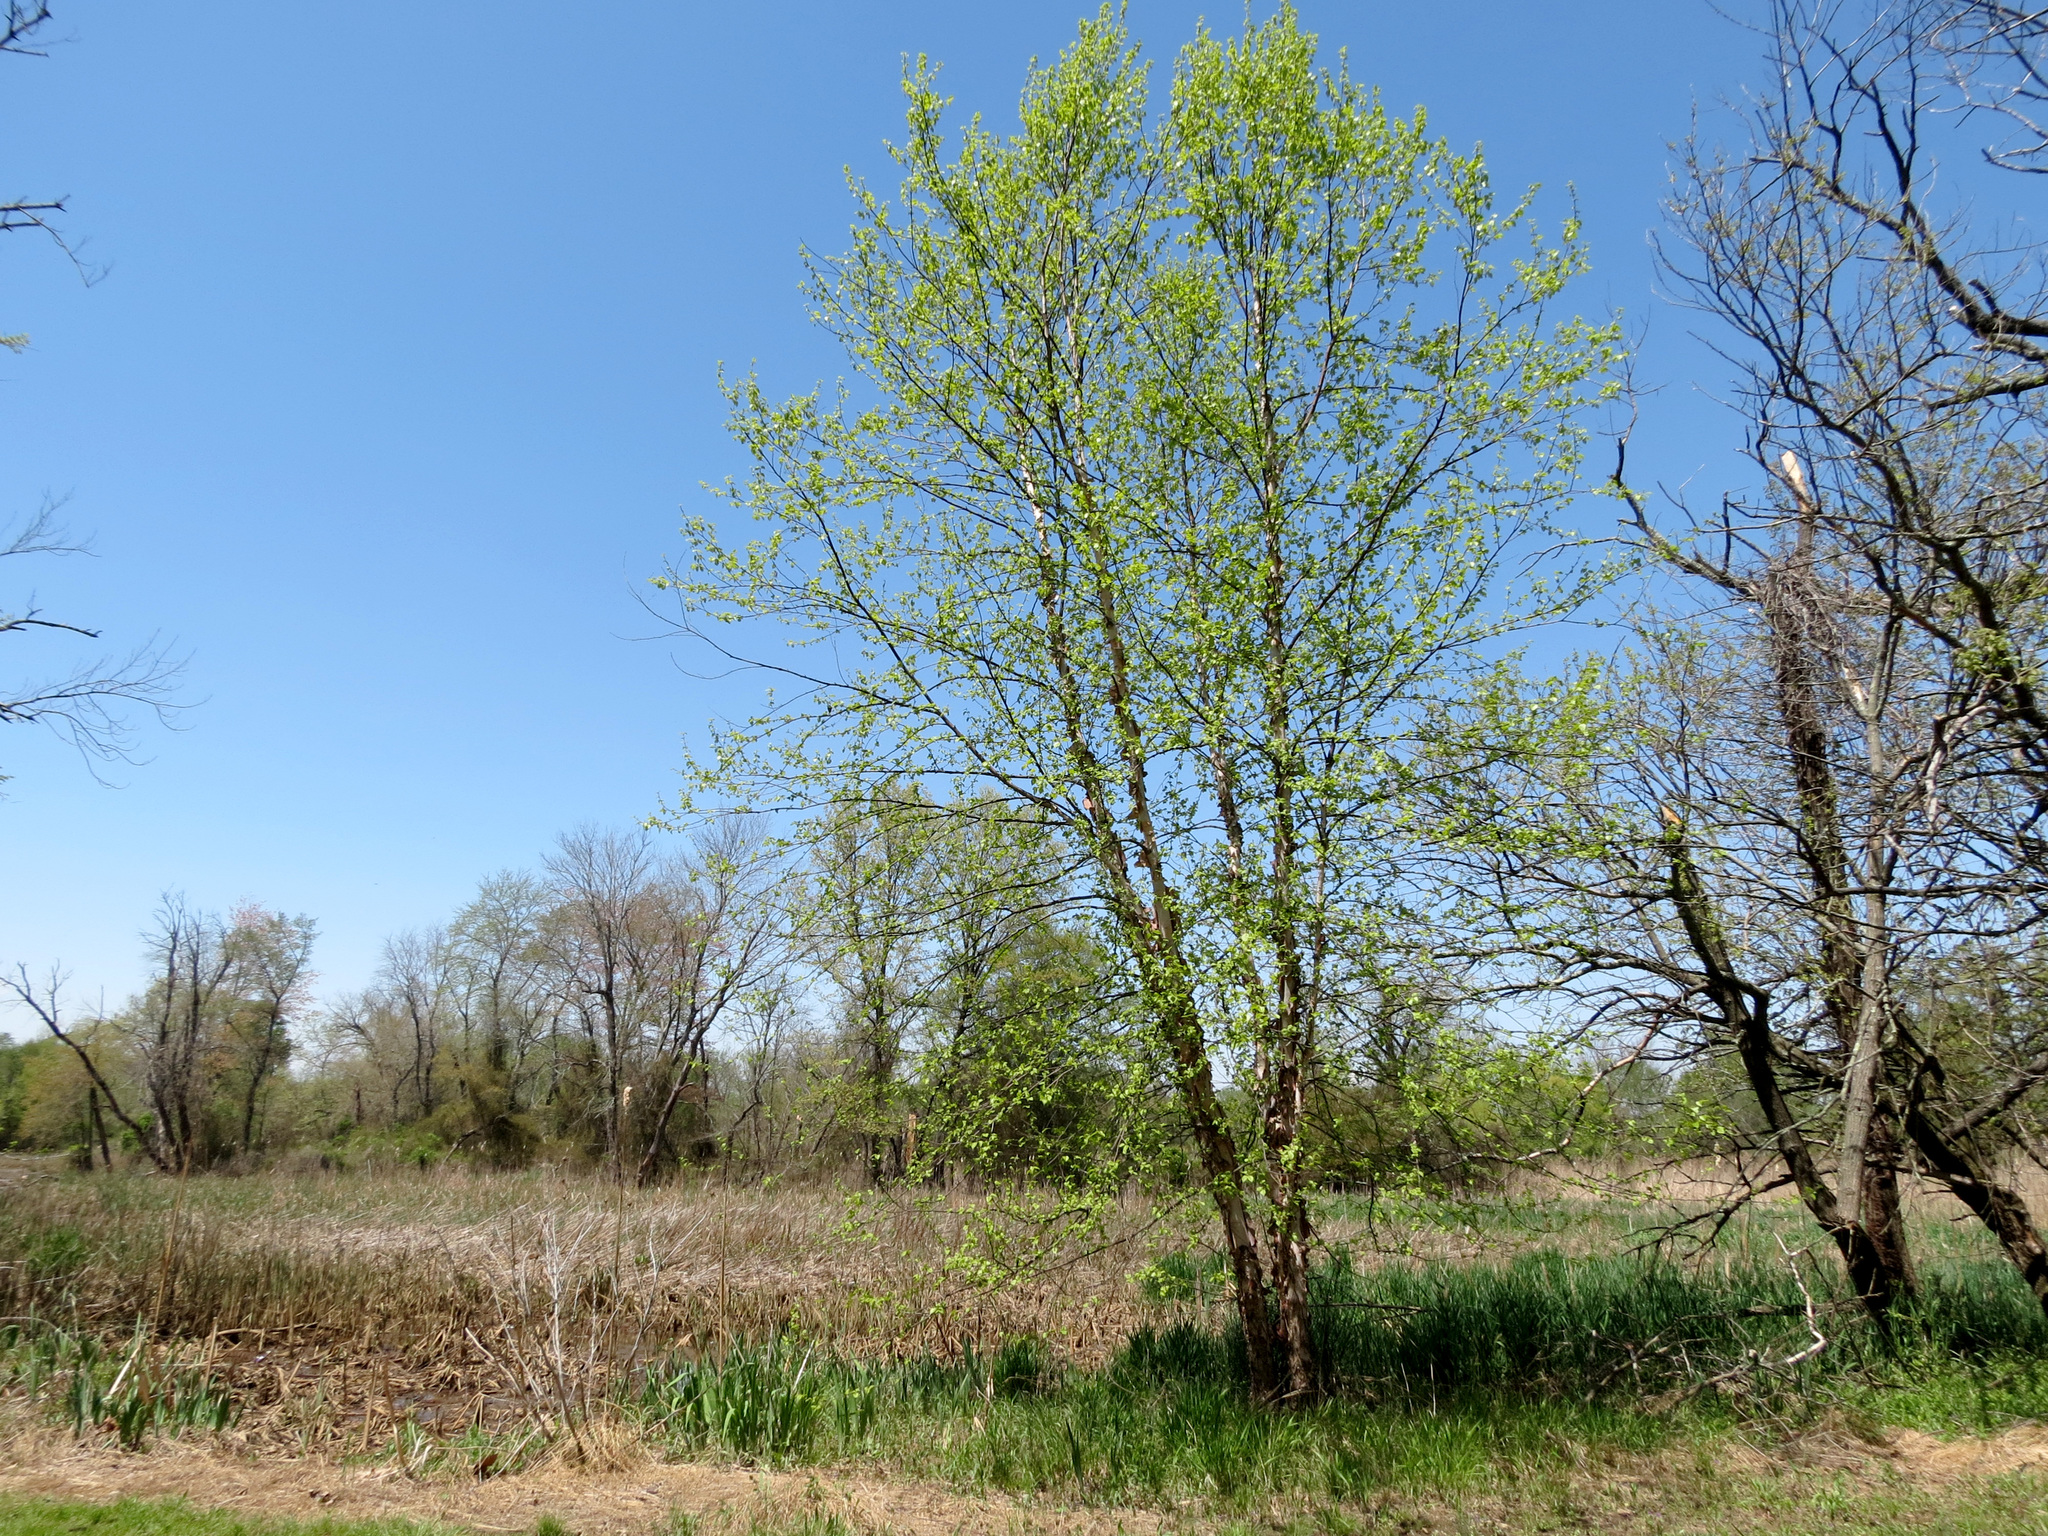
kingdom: Plantae
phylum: Tracheophyta
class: Magnoliopsida
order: Fagales
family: Betulaceae
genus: Betula
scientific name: Betula nigra
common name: Black birch
